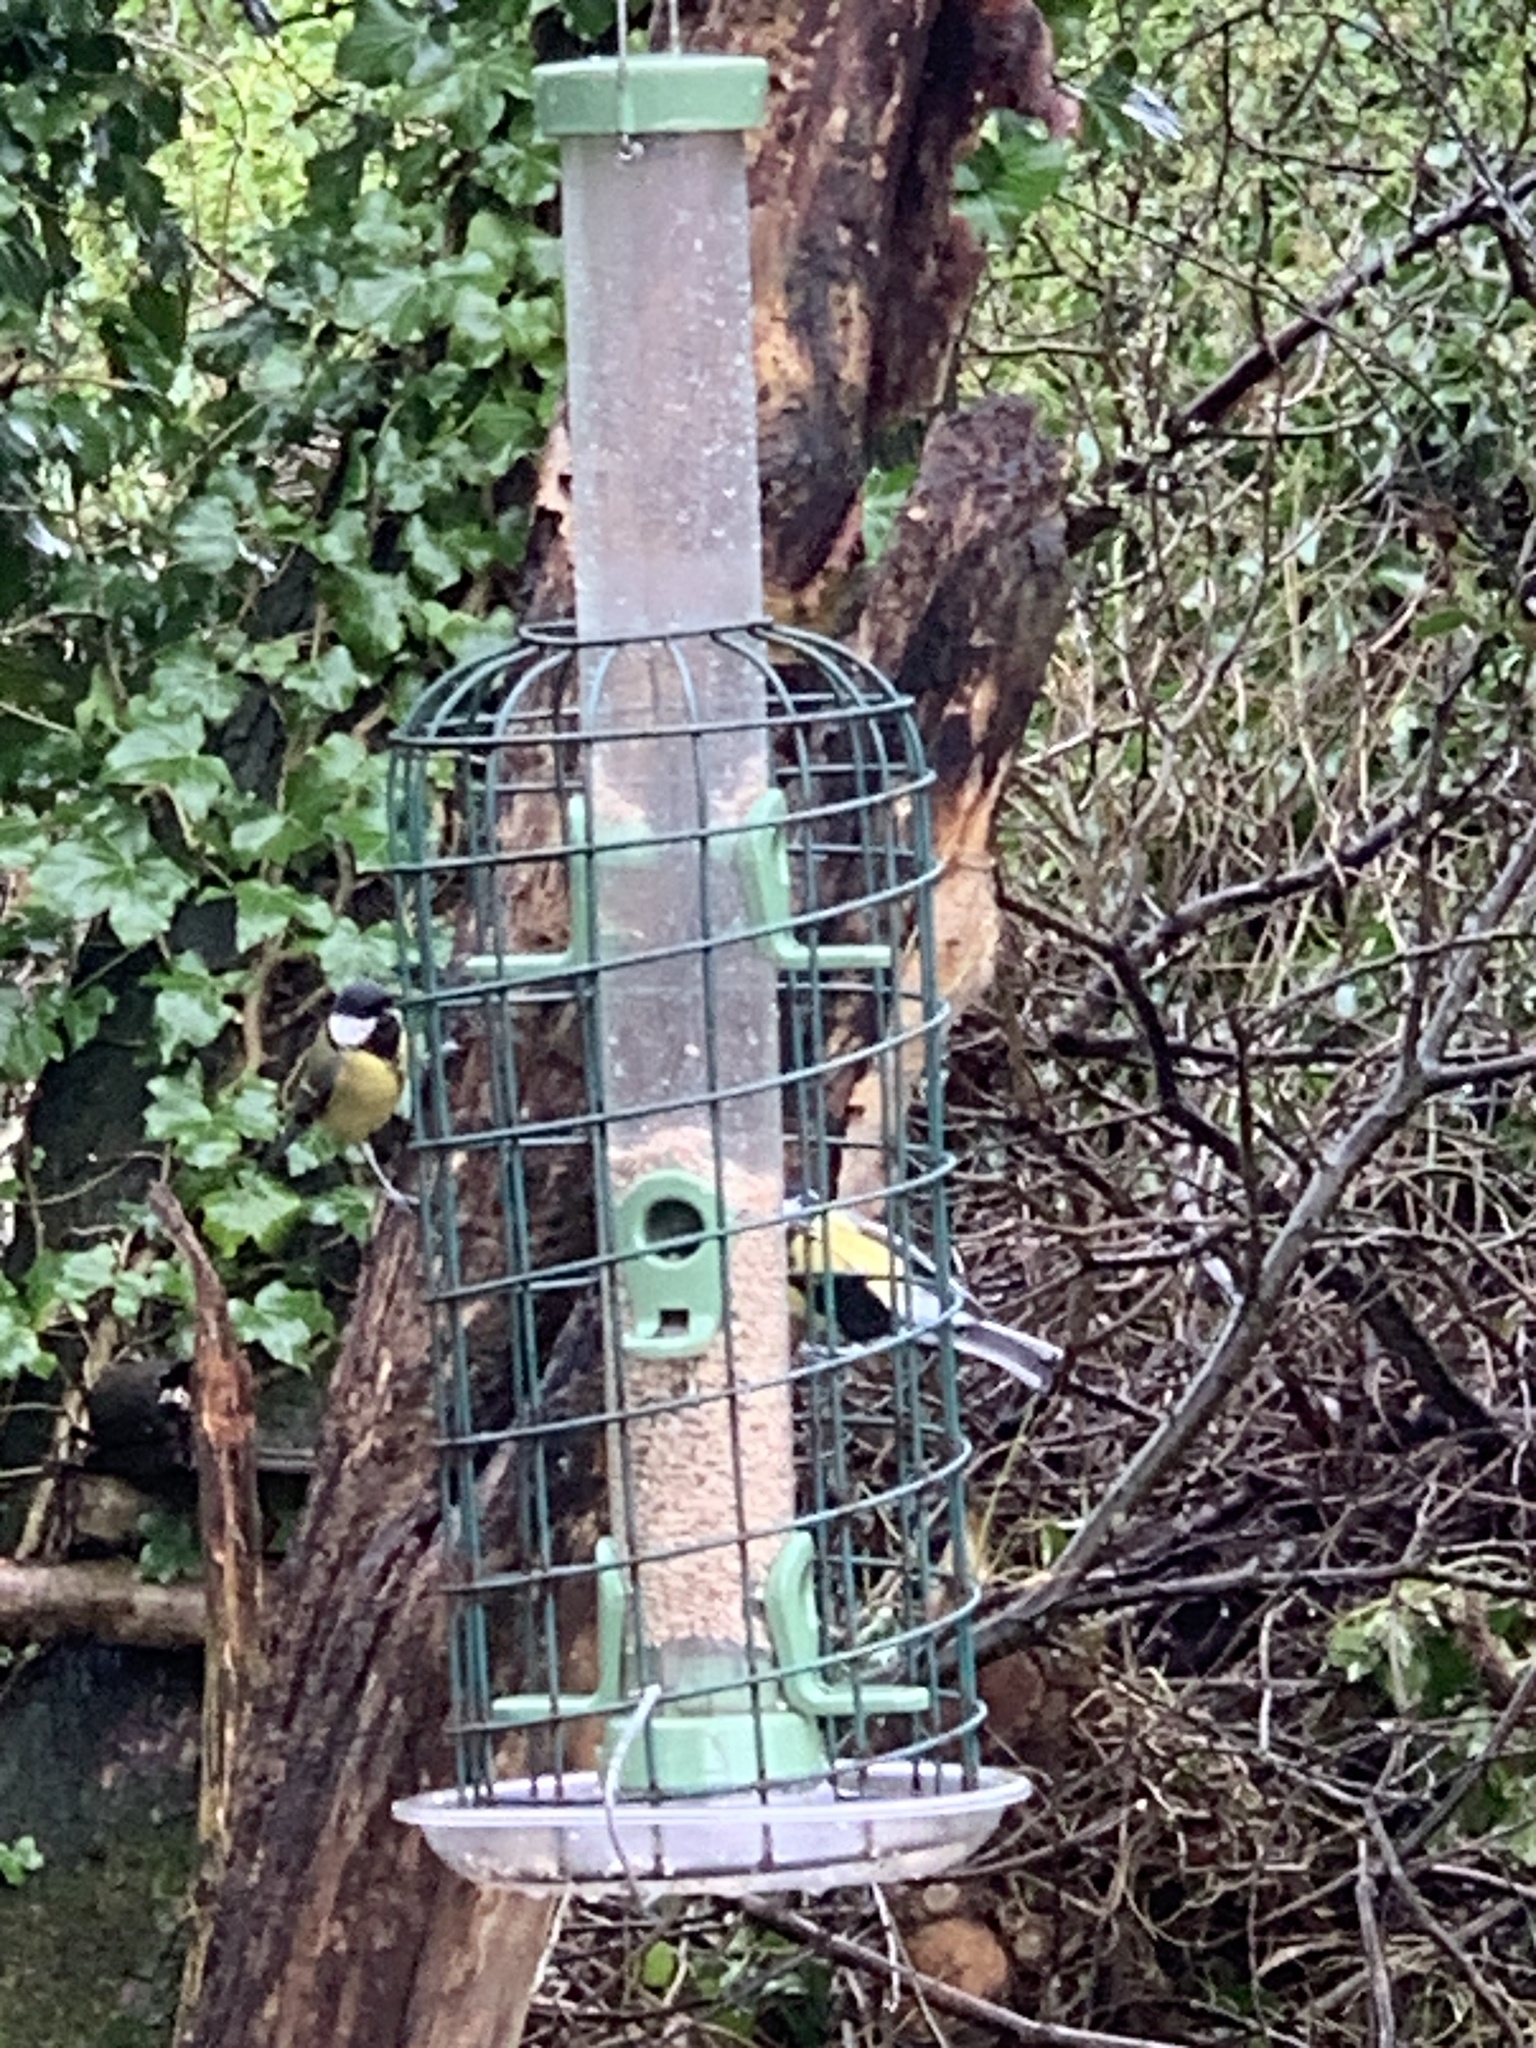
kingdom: Animalia
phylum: Chordata
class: Aves
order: Passeriformes
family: Paridae
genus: Parus
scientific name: Parus major
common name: Great tit
